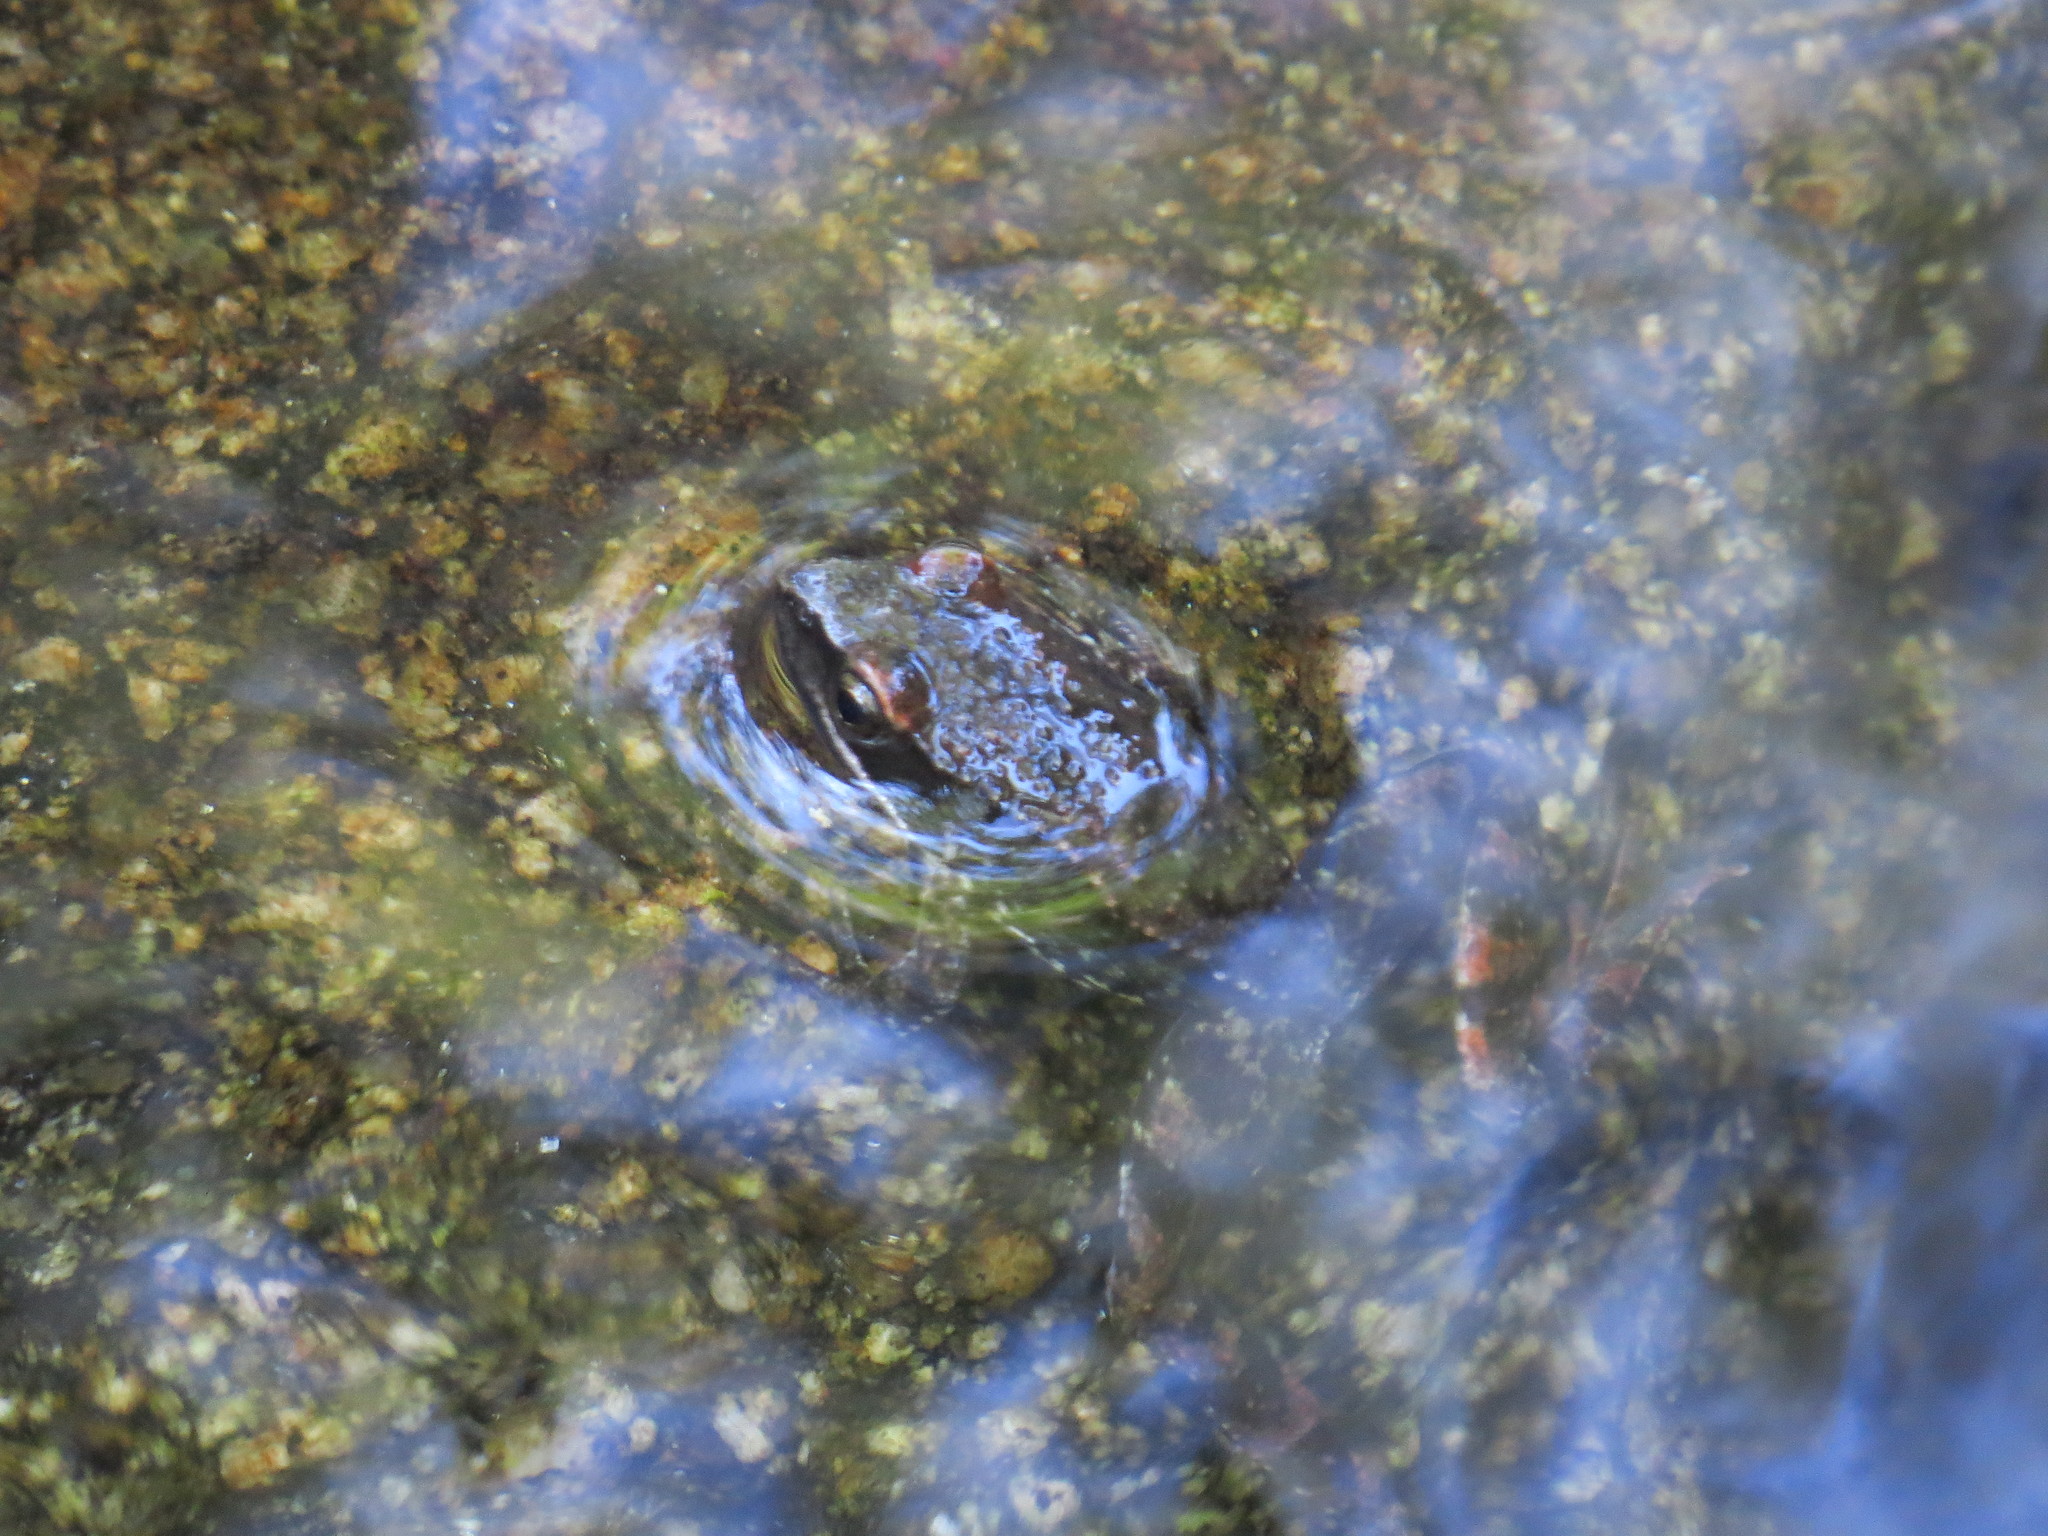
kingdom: Animalia
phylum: Chordata
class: Amphibia
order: Anura
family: Ranidae
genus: Rana
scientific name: Rana iberica
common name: Iberian frog
